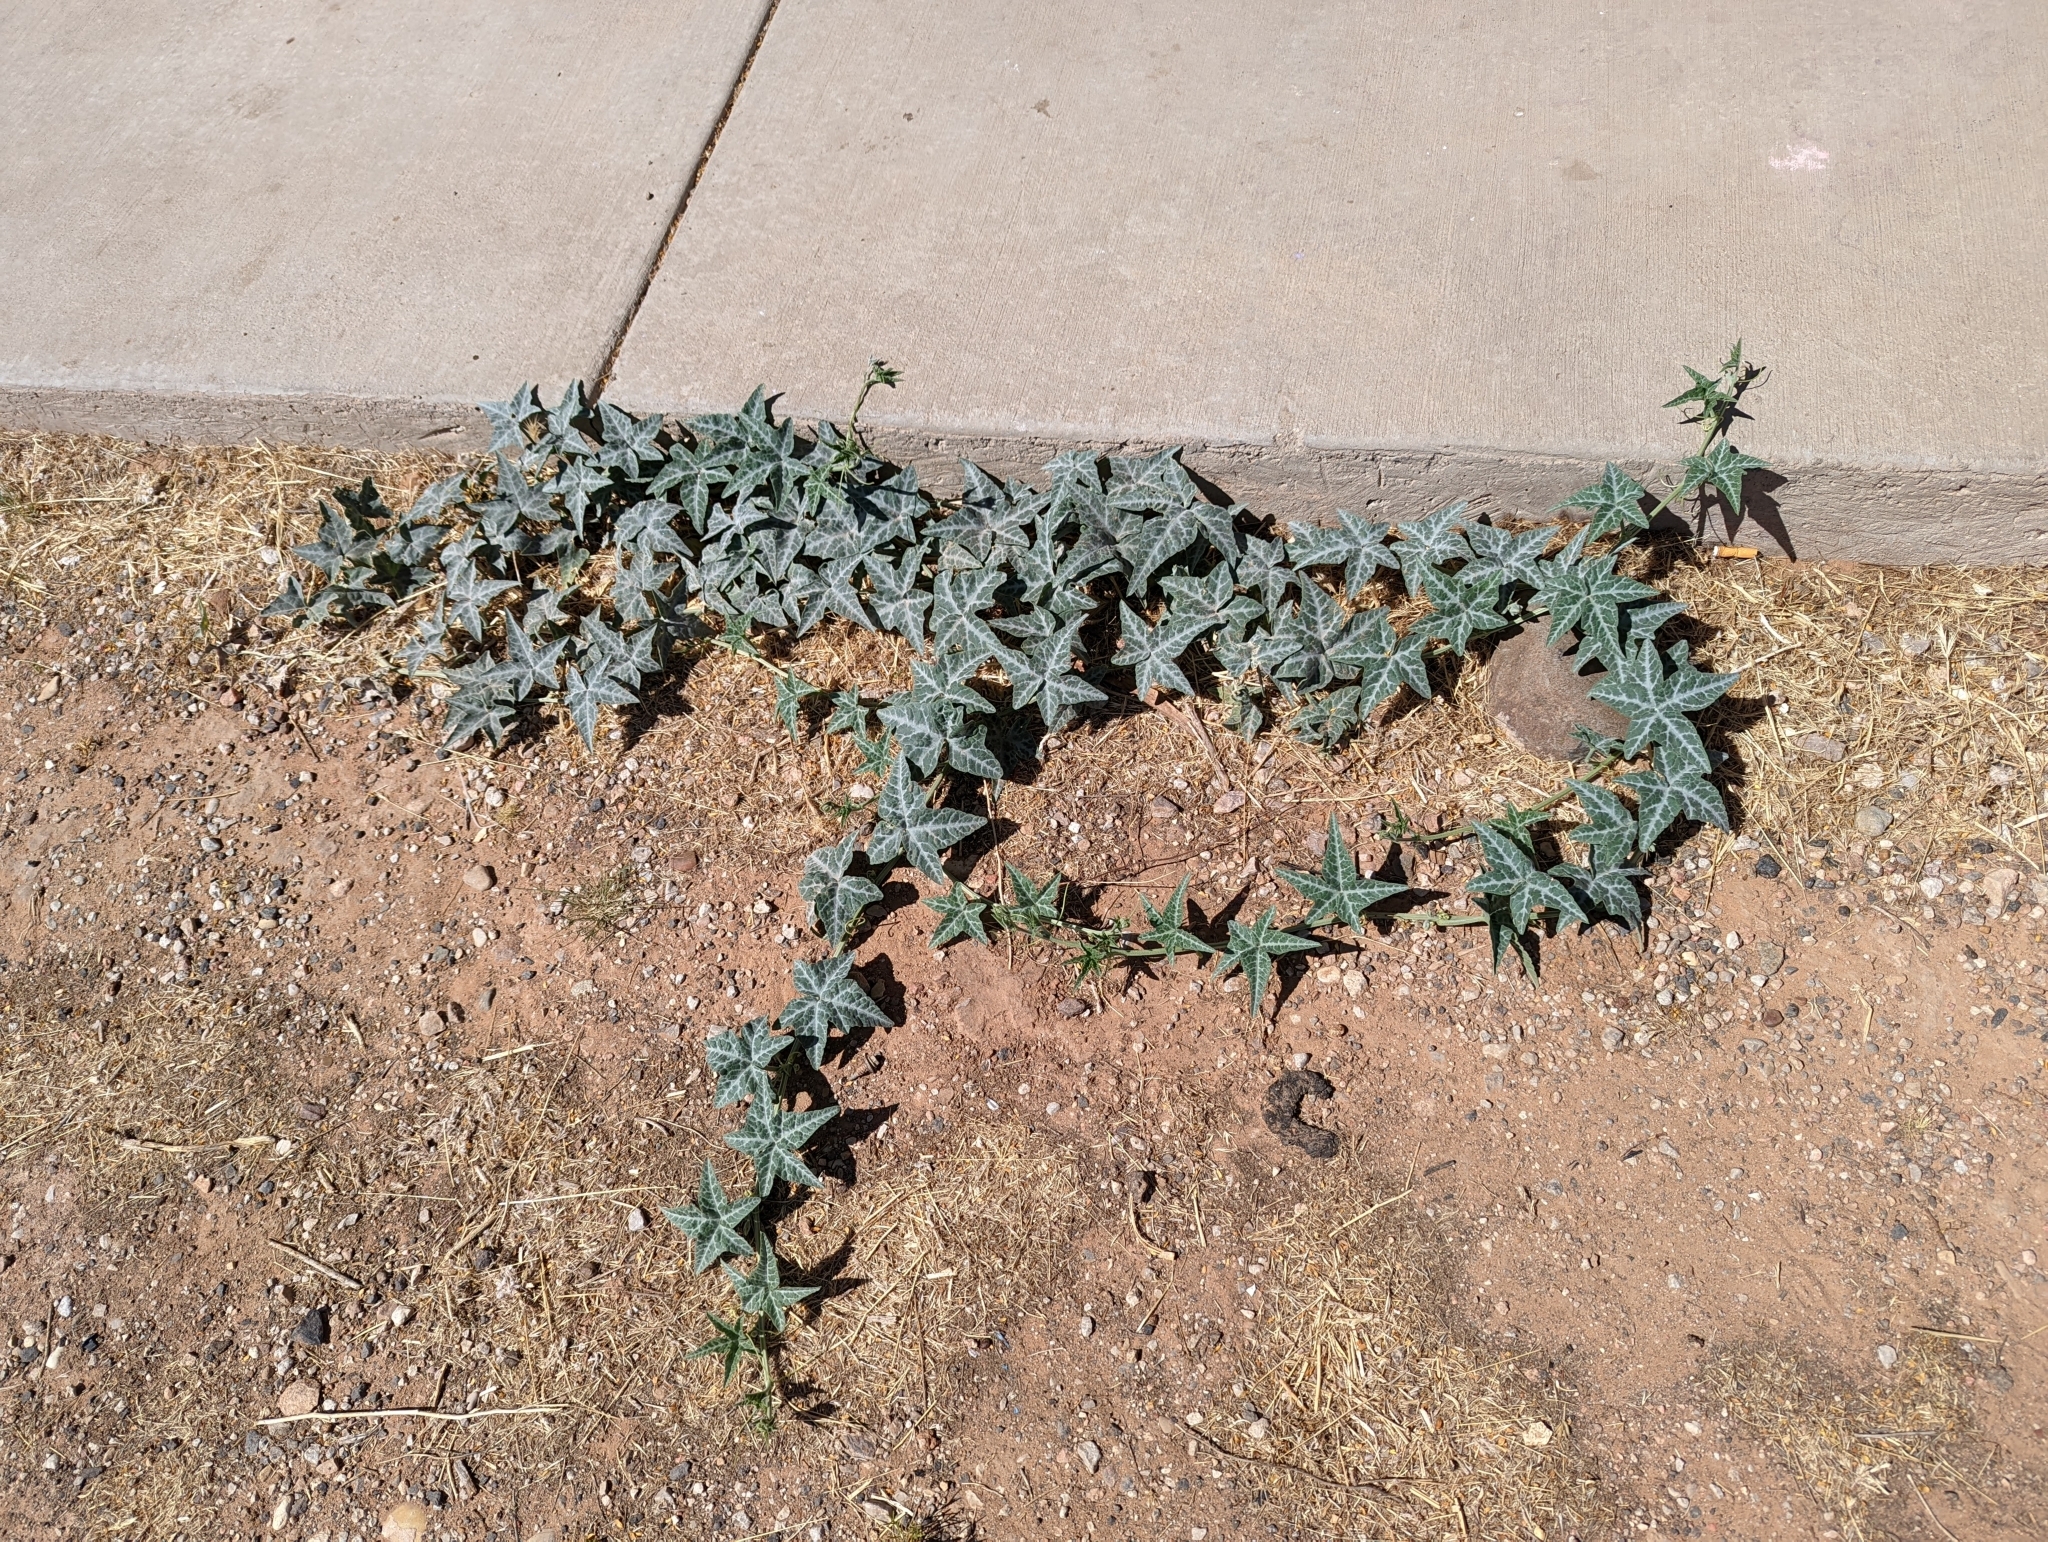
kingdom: Plantae
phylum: Tracheophyta
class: Magnoliopsida
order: Cucurbitales
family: Cucurbitaceae
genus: Cucurbita
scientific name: Cucurbita palmata
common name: Coyote-melon
